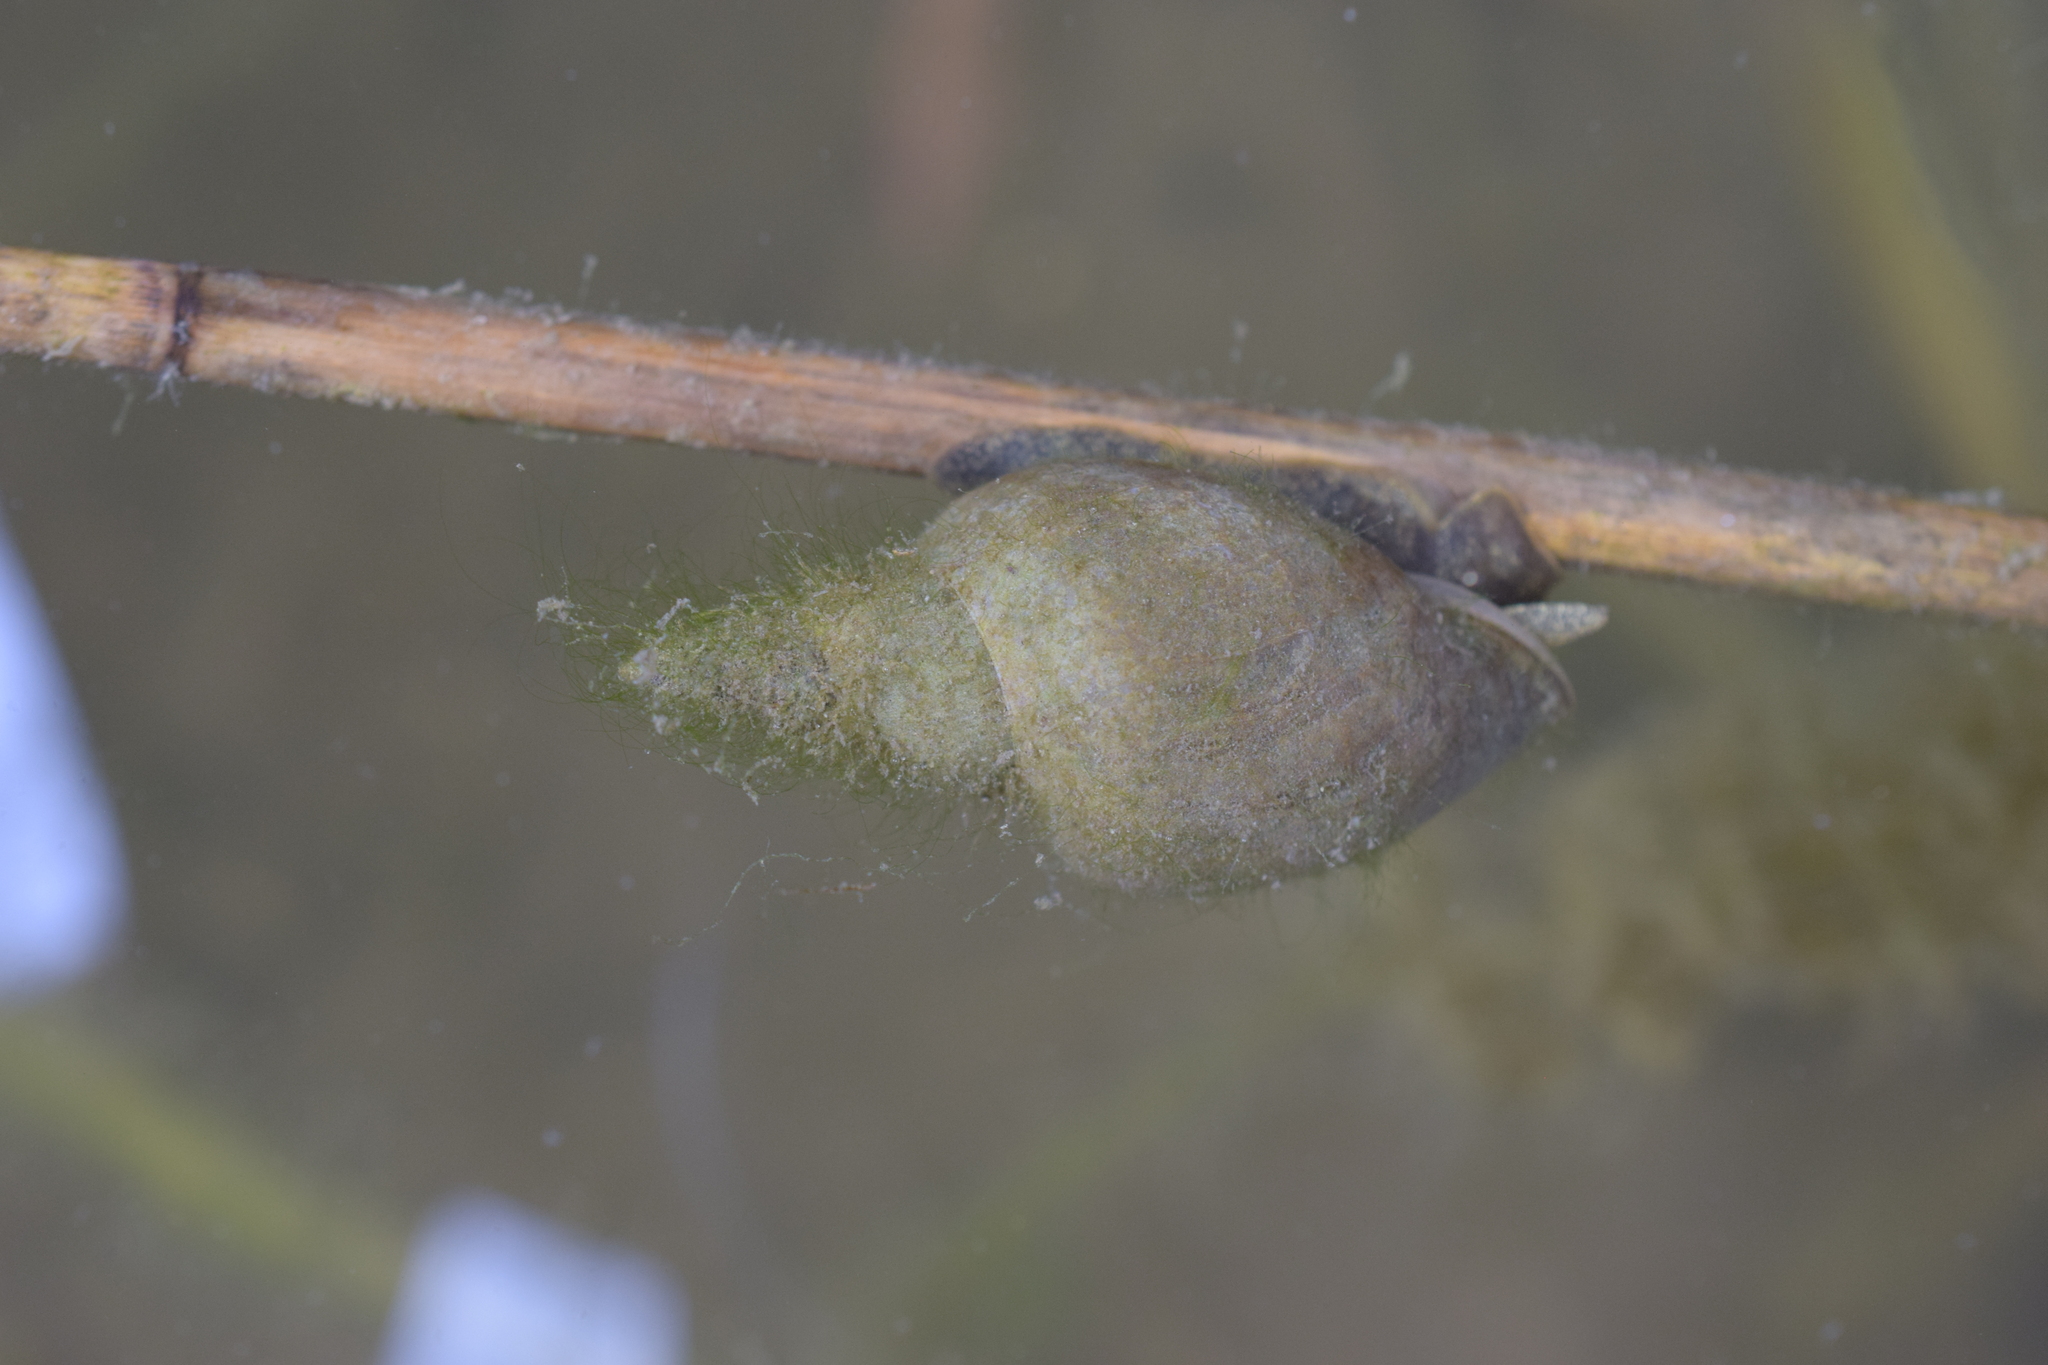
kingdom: Animalia
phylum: Mollusca
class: Gastropoda
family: Lymnaeidae
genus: Lymnaea
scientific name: Lymnaea stagnalis
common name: Great pond snail
